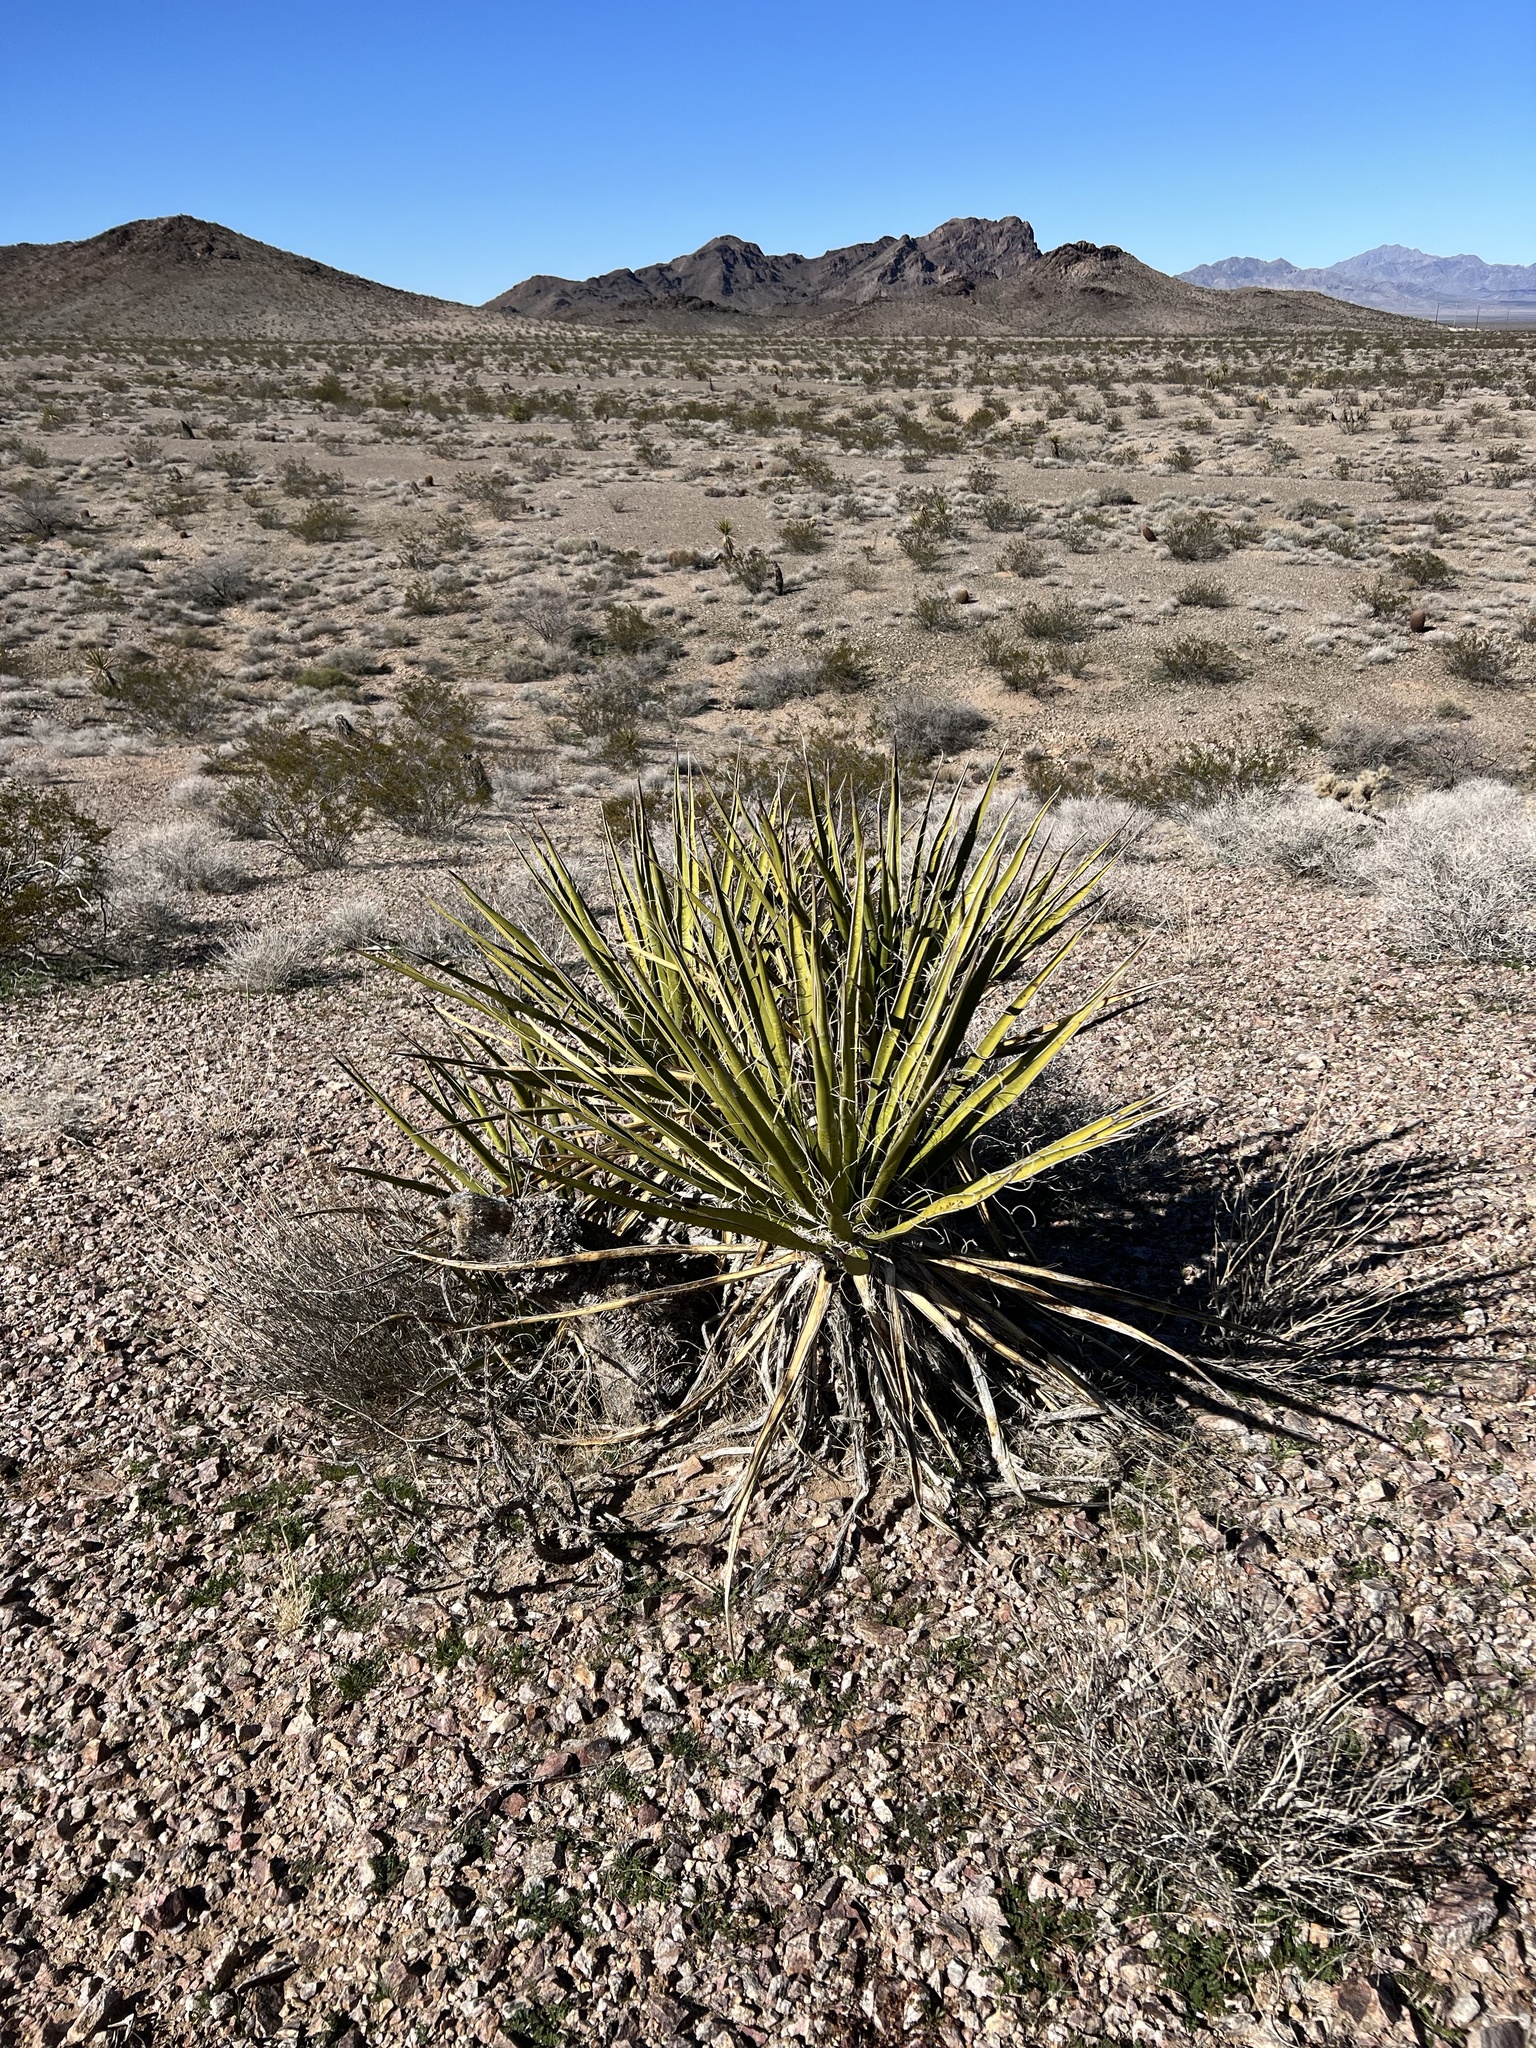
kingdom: Plantae
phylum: Tracheophyta
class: Liliopsida
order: Asparagales
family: Asparagaceae
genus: Yucca
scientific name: Yucca schidigera
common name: Mojave yucca
